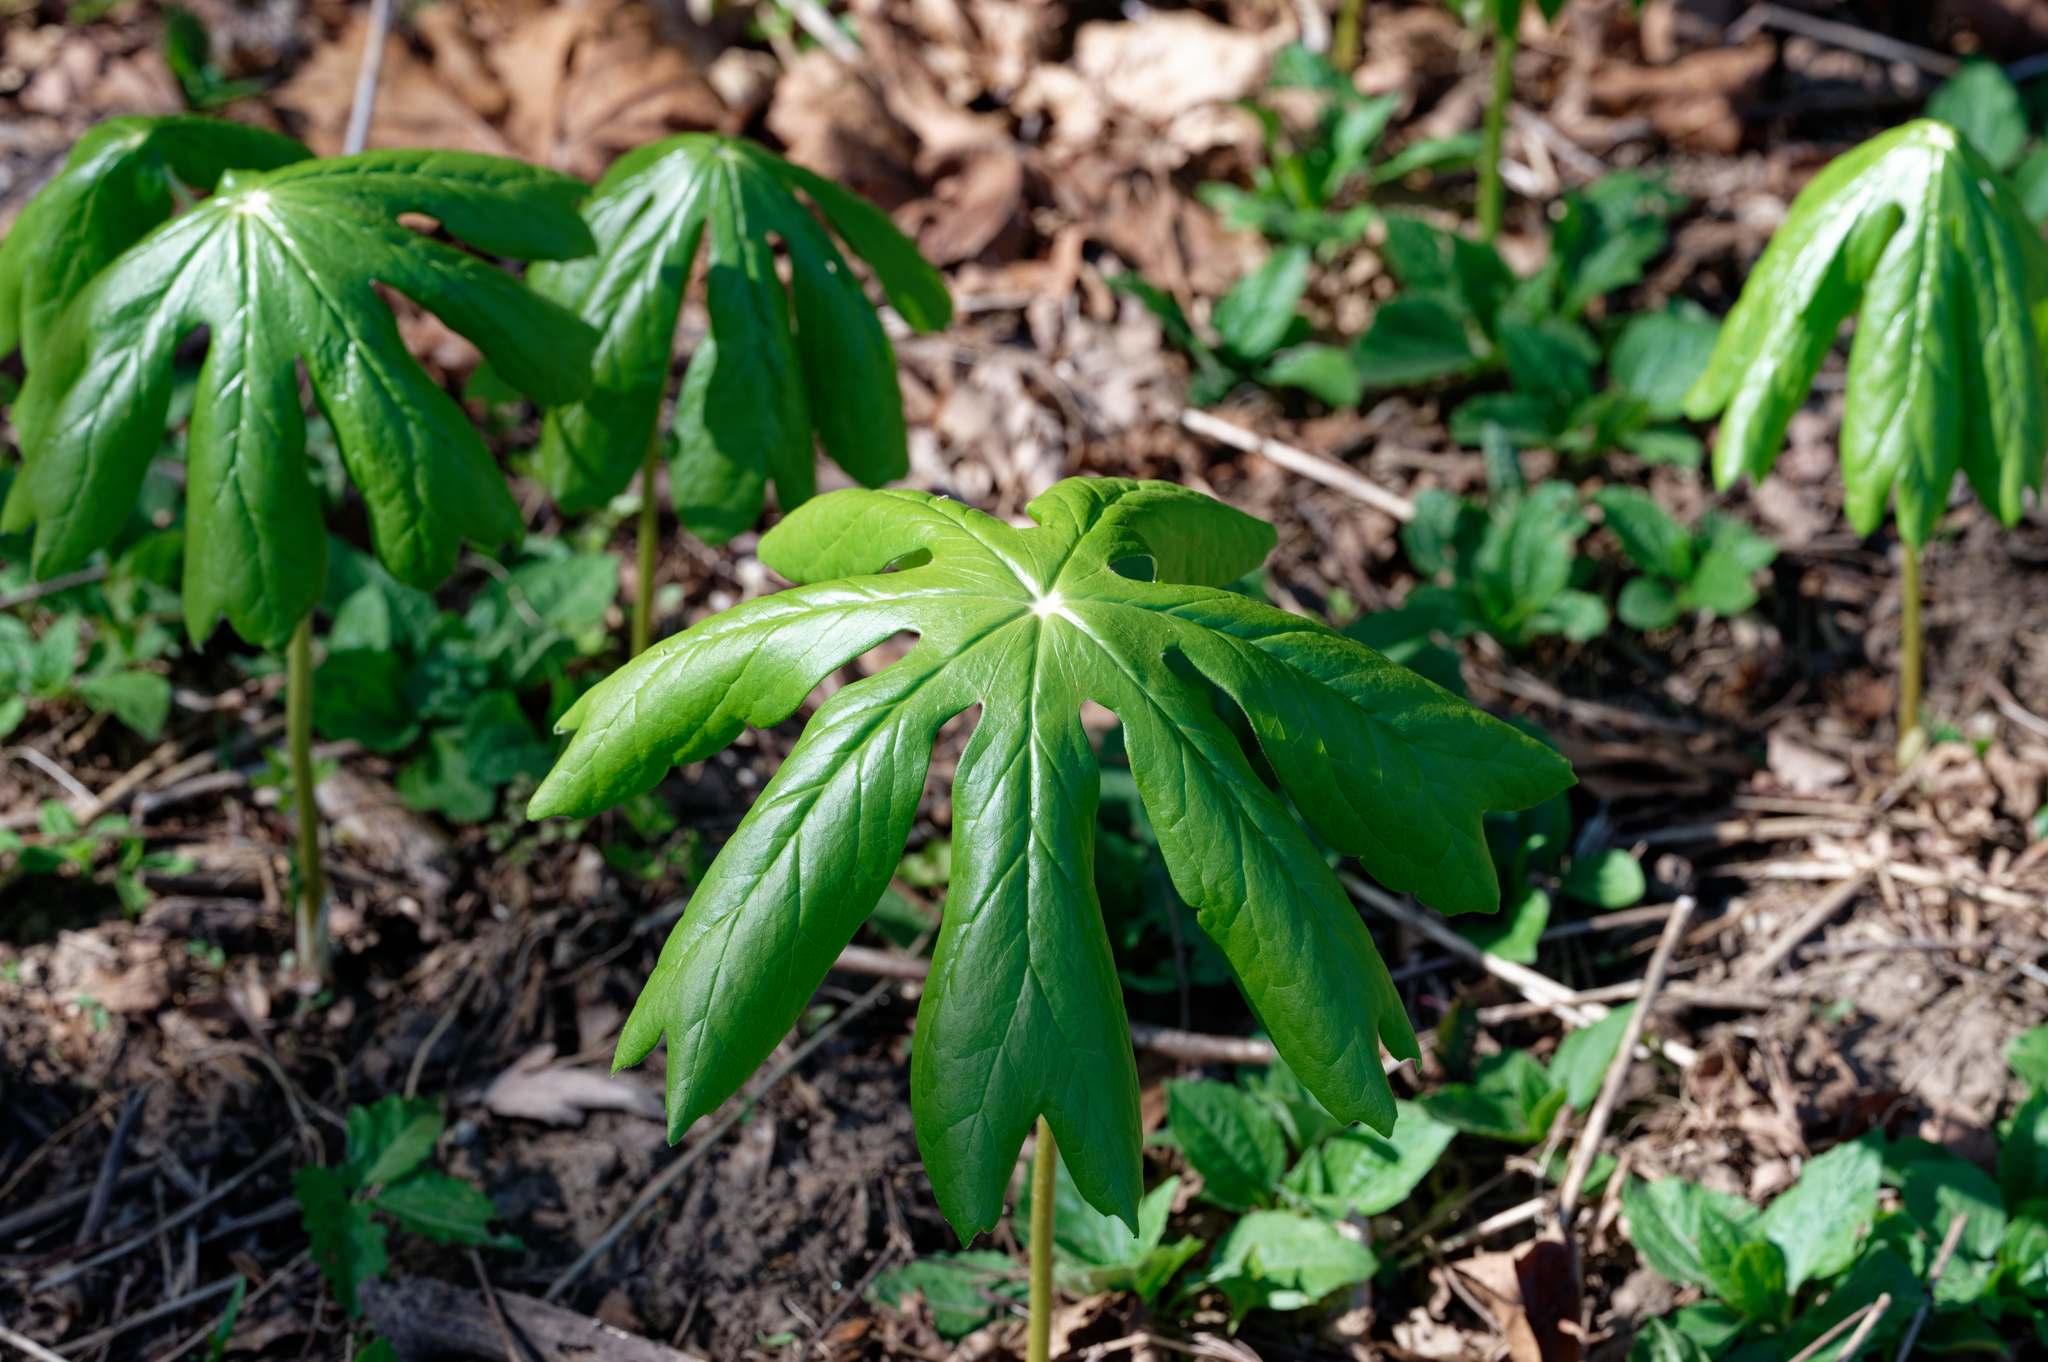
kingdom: Plantae
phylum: Tracheophyta
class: Magnoliopsida
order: Ranunculales
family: Berberidaceae
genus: Podophyllum
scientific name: Podophyllum peltatum
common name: Wild mandrake
